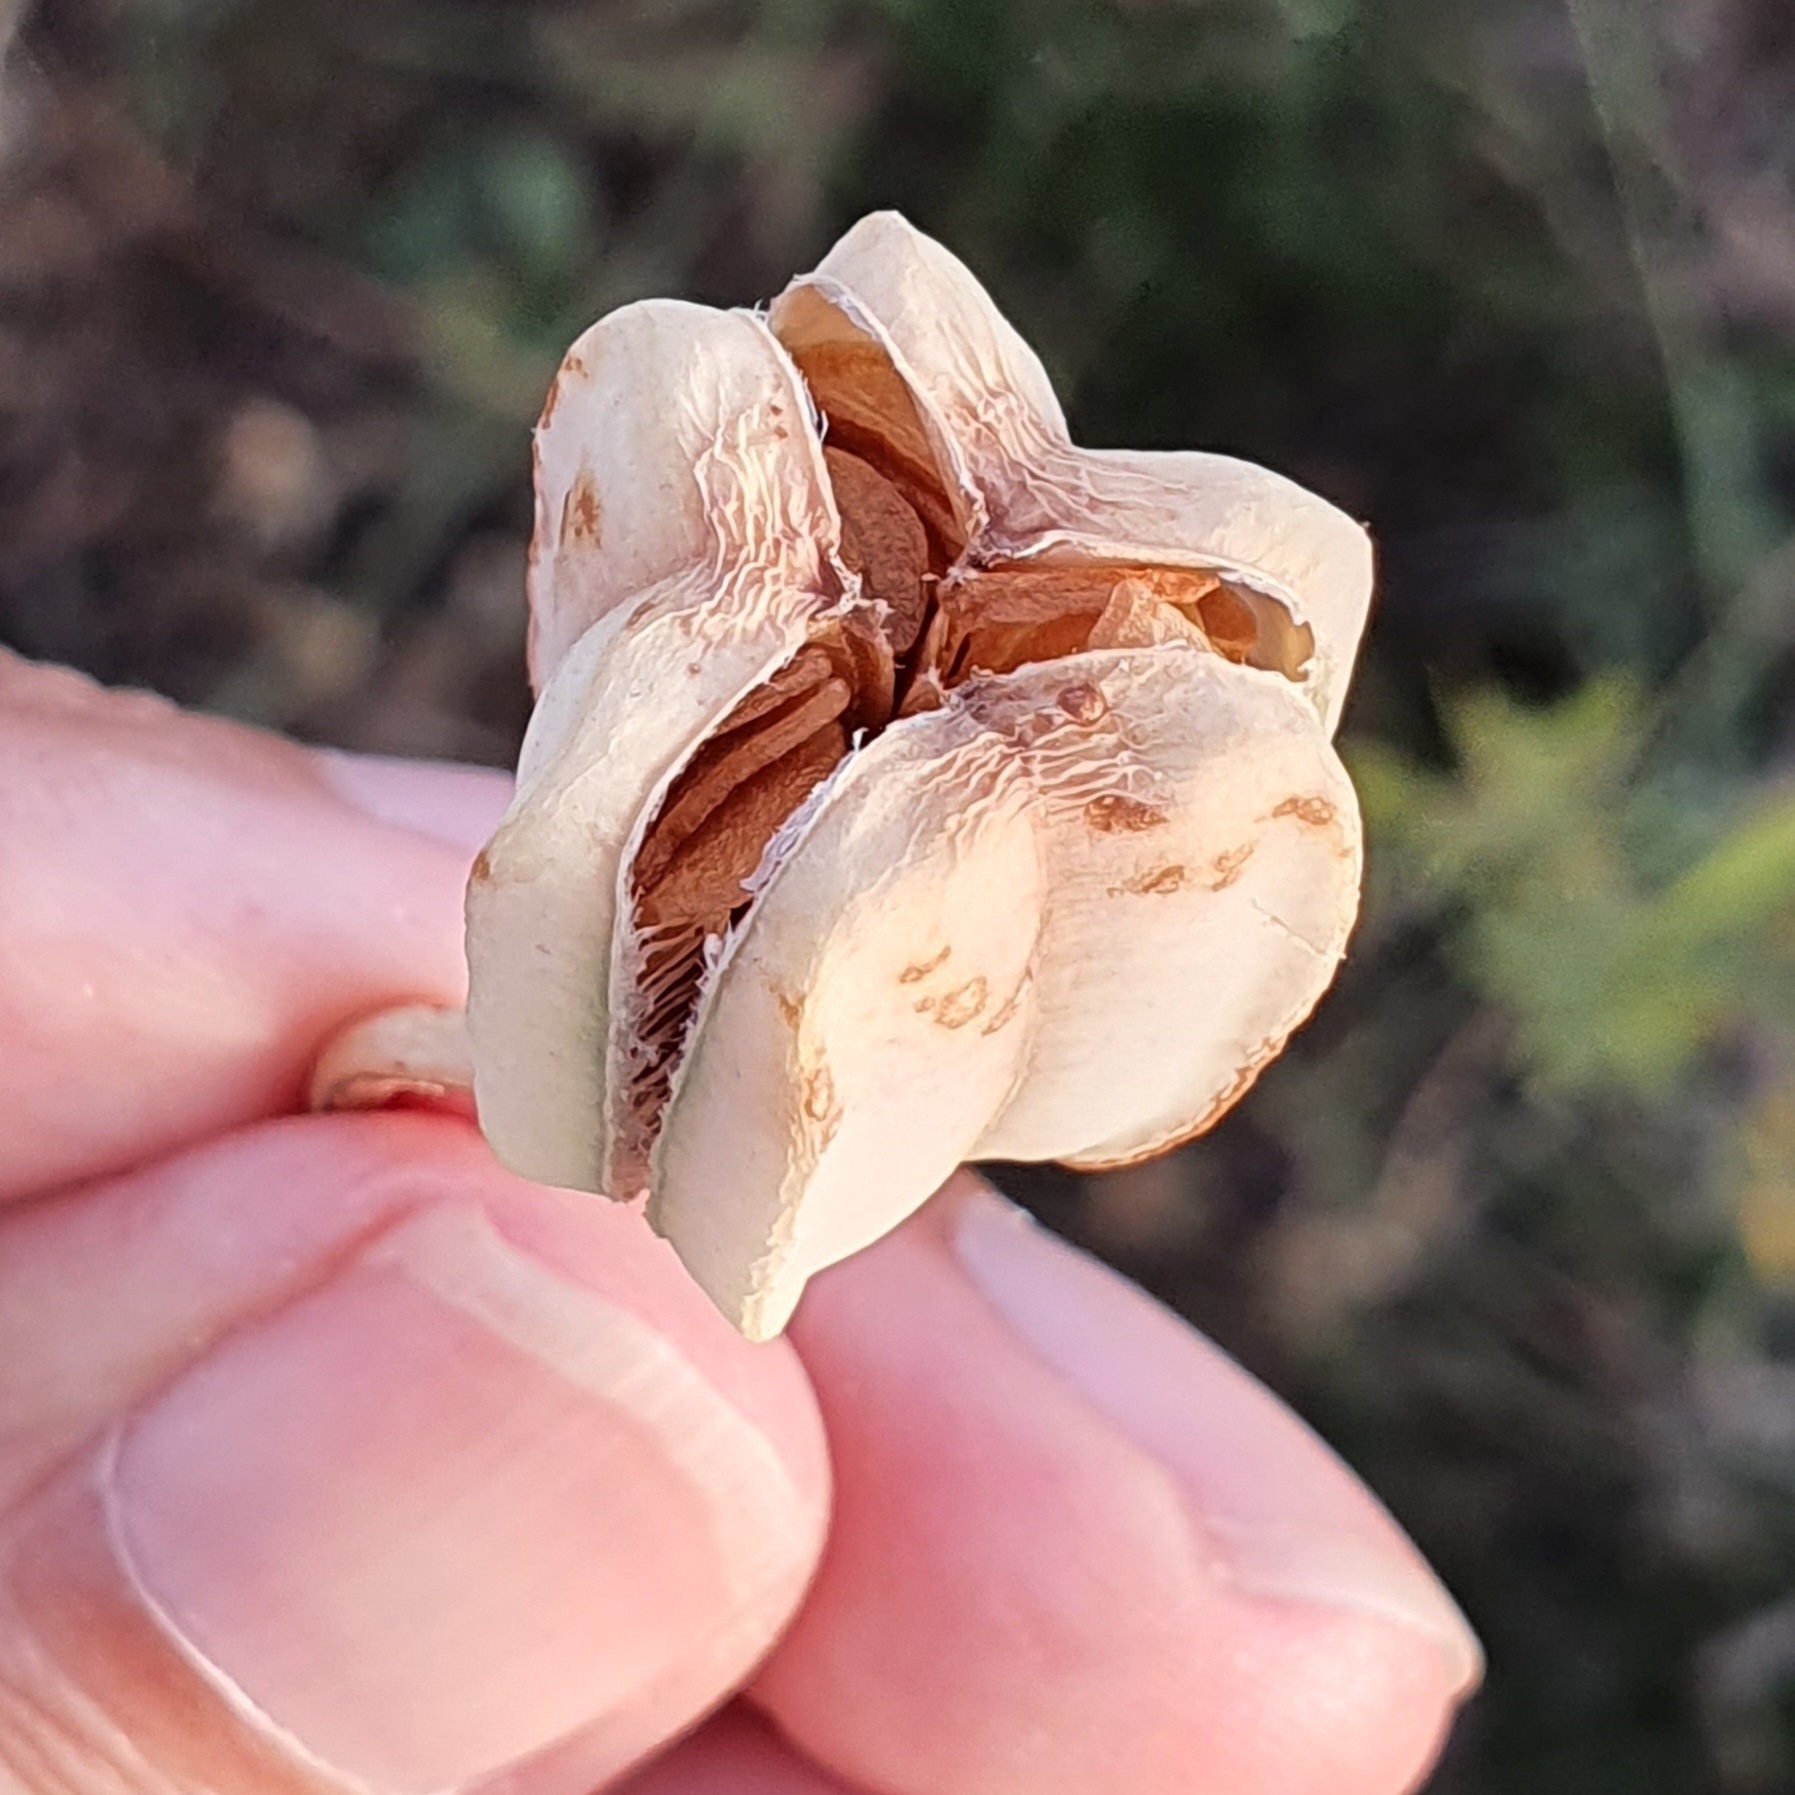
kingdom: Plantae
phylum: Tracheophyta
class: Liliopsida
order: Liliales
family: Liliaceae
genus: Fritillaria
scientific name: Fritillaria oranensis
